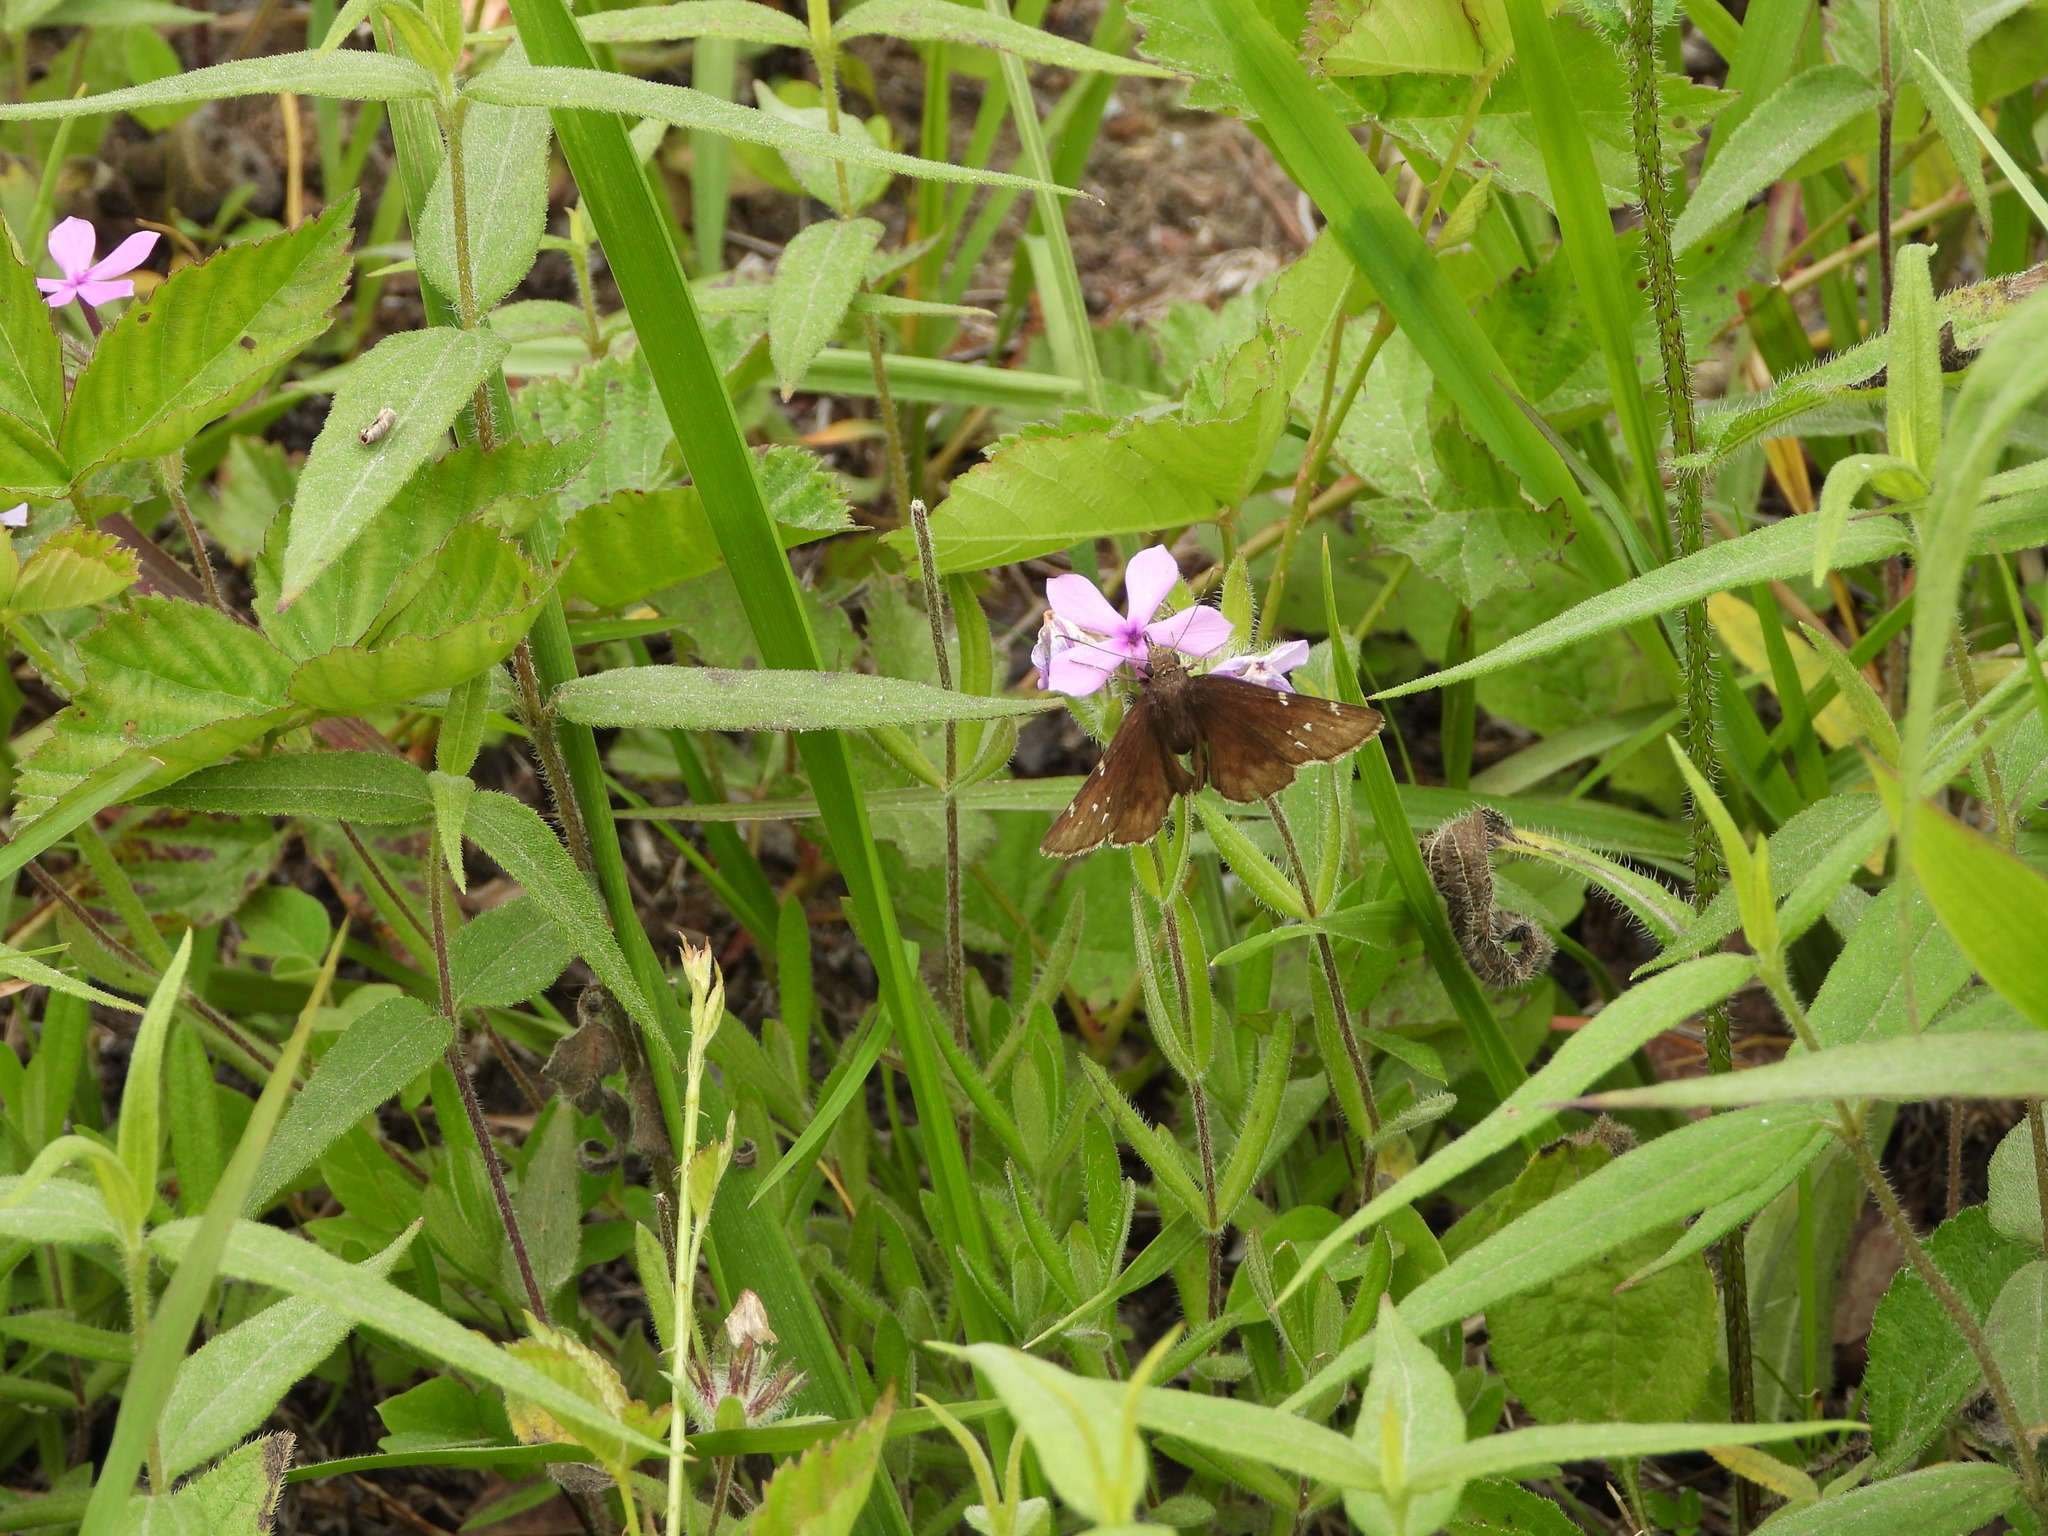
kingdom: Animalia
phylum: Arthropoda
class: Insecta
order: Lepidoptera
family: Hesperiidae
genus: Thorybes
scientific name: Thorybes daunus
